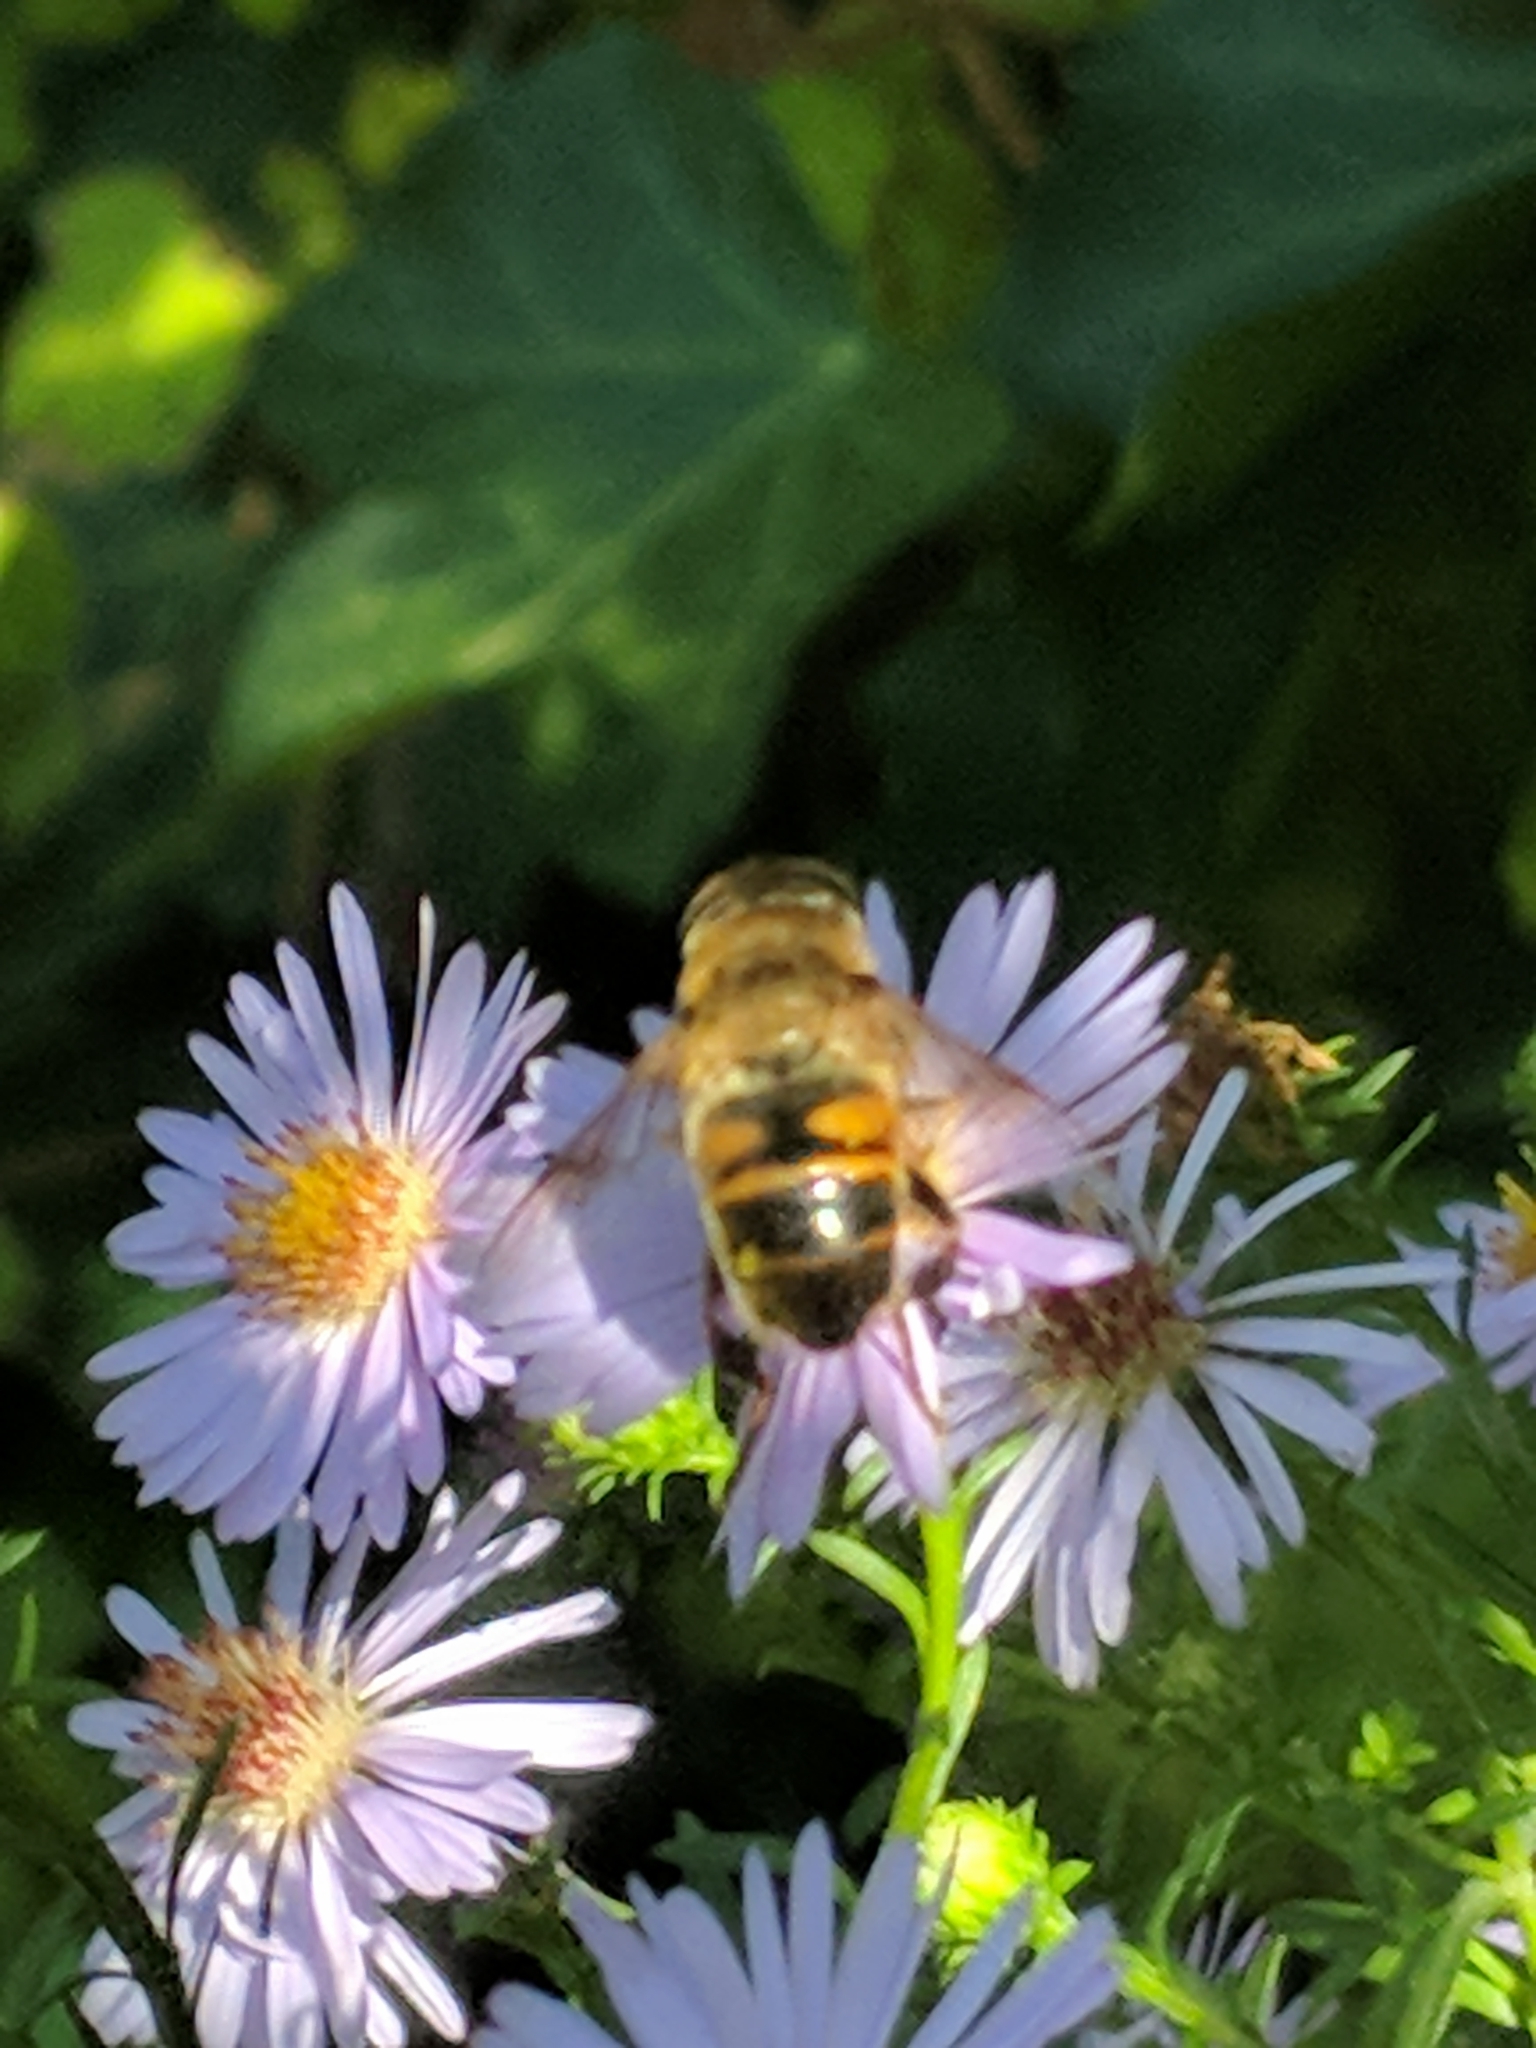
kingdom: Animalia
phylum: Arthropoda
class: Insecta
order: Diptera
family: Syrphidae
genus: Eristalis
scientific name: Eristalis tenax
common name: Drone fly
